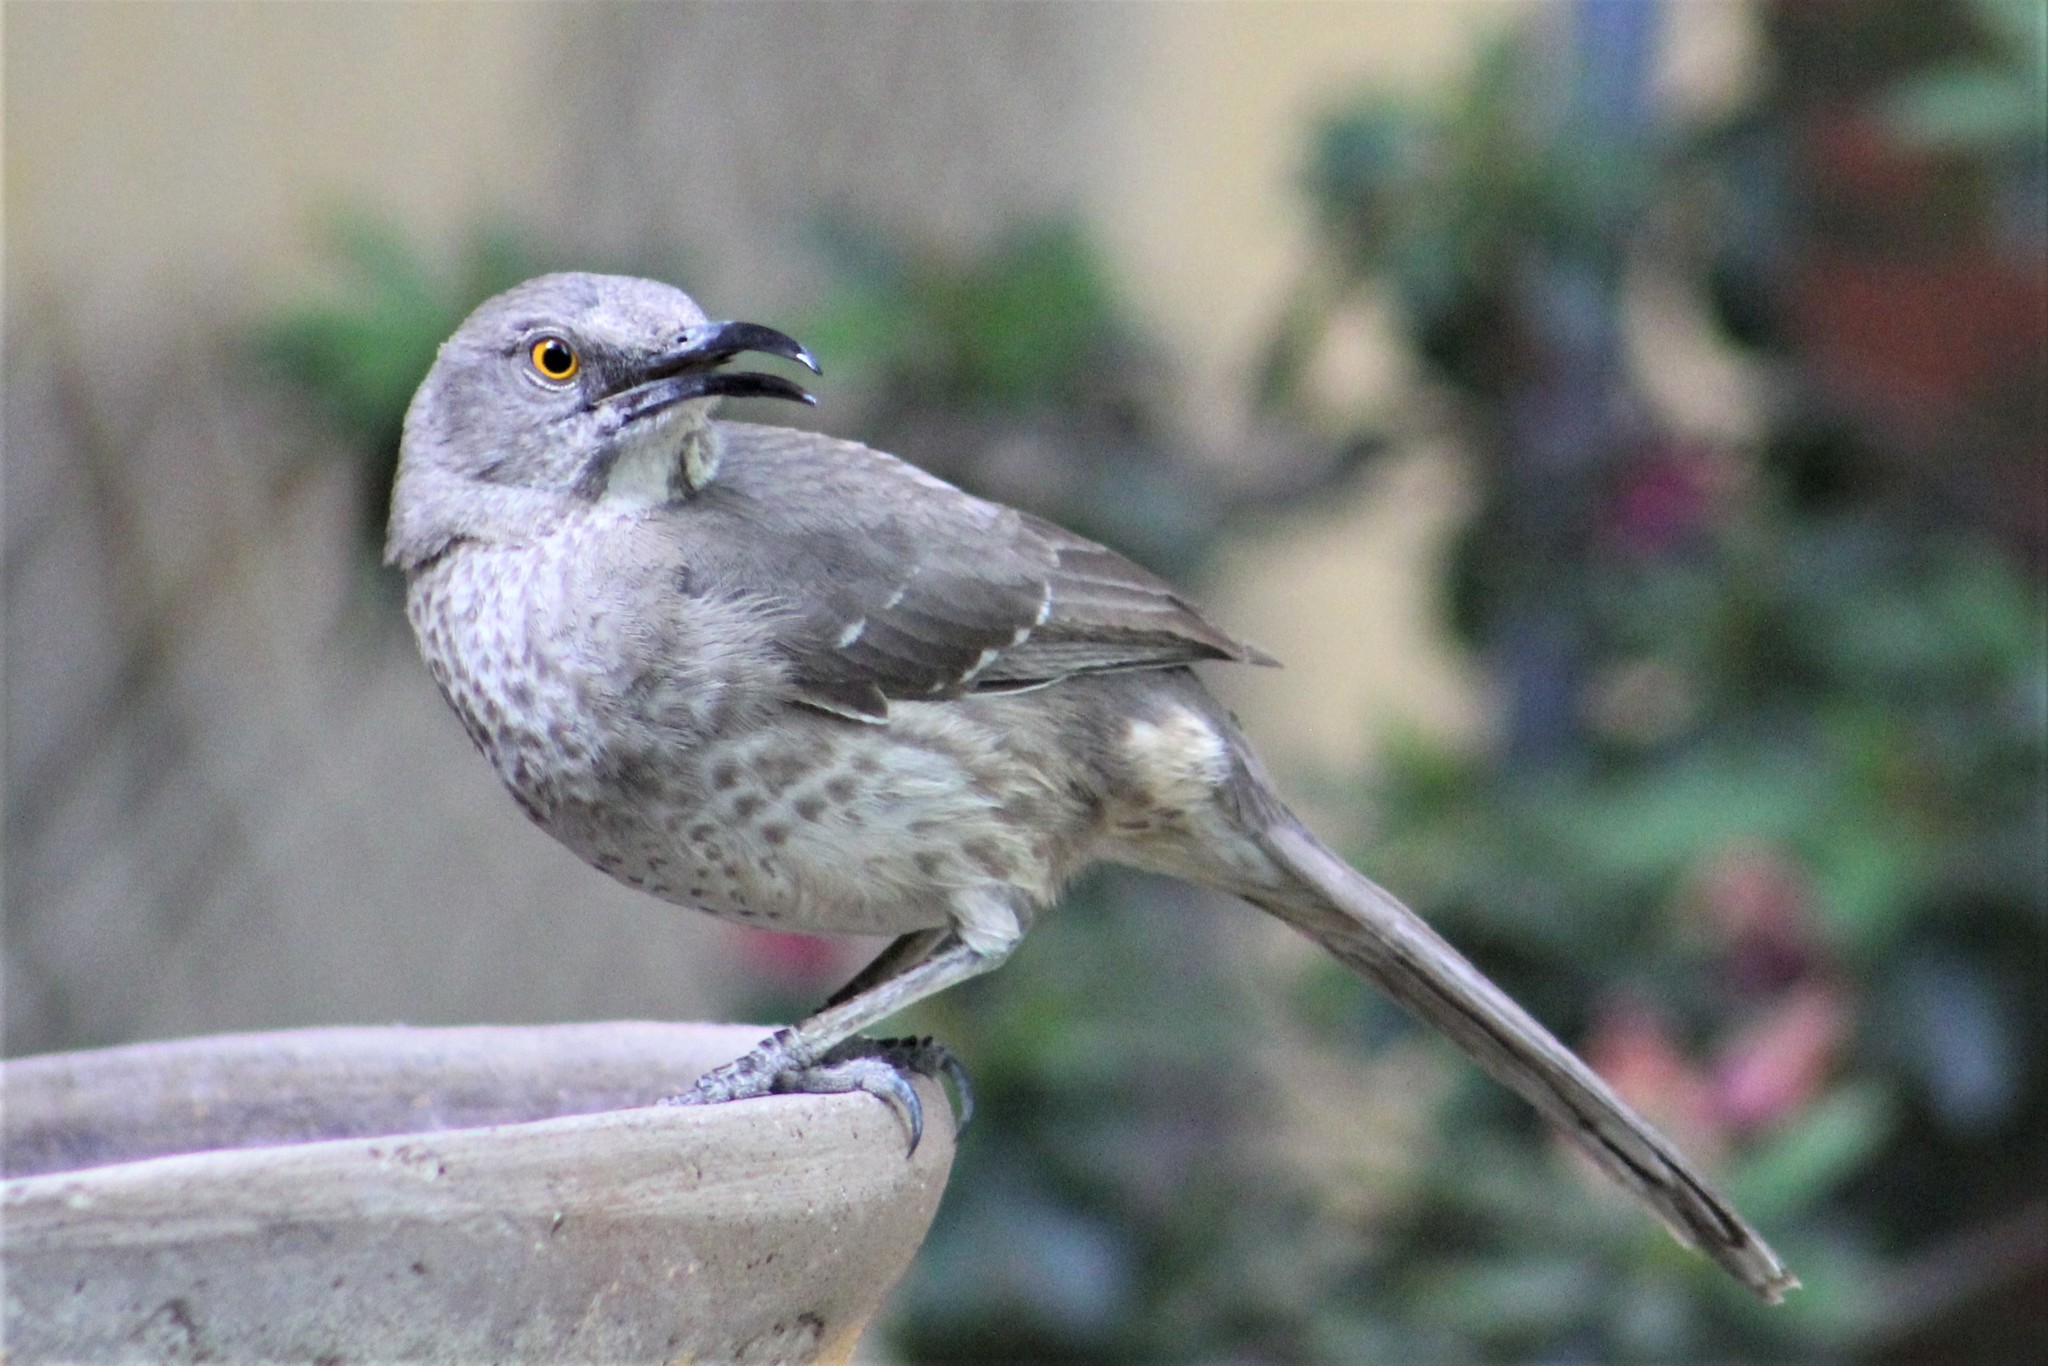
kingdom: Animalia
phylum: Chordata
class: Aves
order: Passeriformes
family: Mimidae
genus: Toxostoma
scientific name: Toxostoma curvirostre
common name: Curve-billed thrasher
